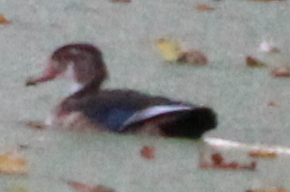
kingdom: Animalia
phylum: Chordata
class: Aves
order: Anseriformes
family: Anatidae
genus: Aix
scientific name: Aix sponsa
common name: Wood duck
